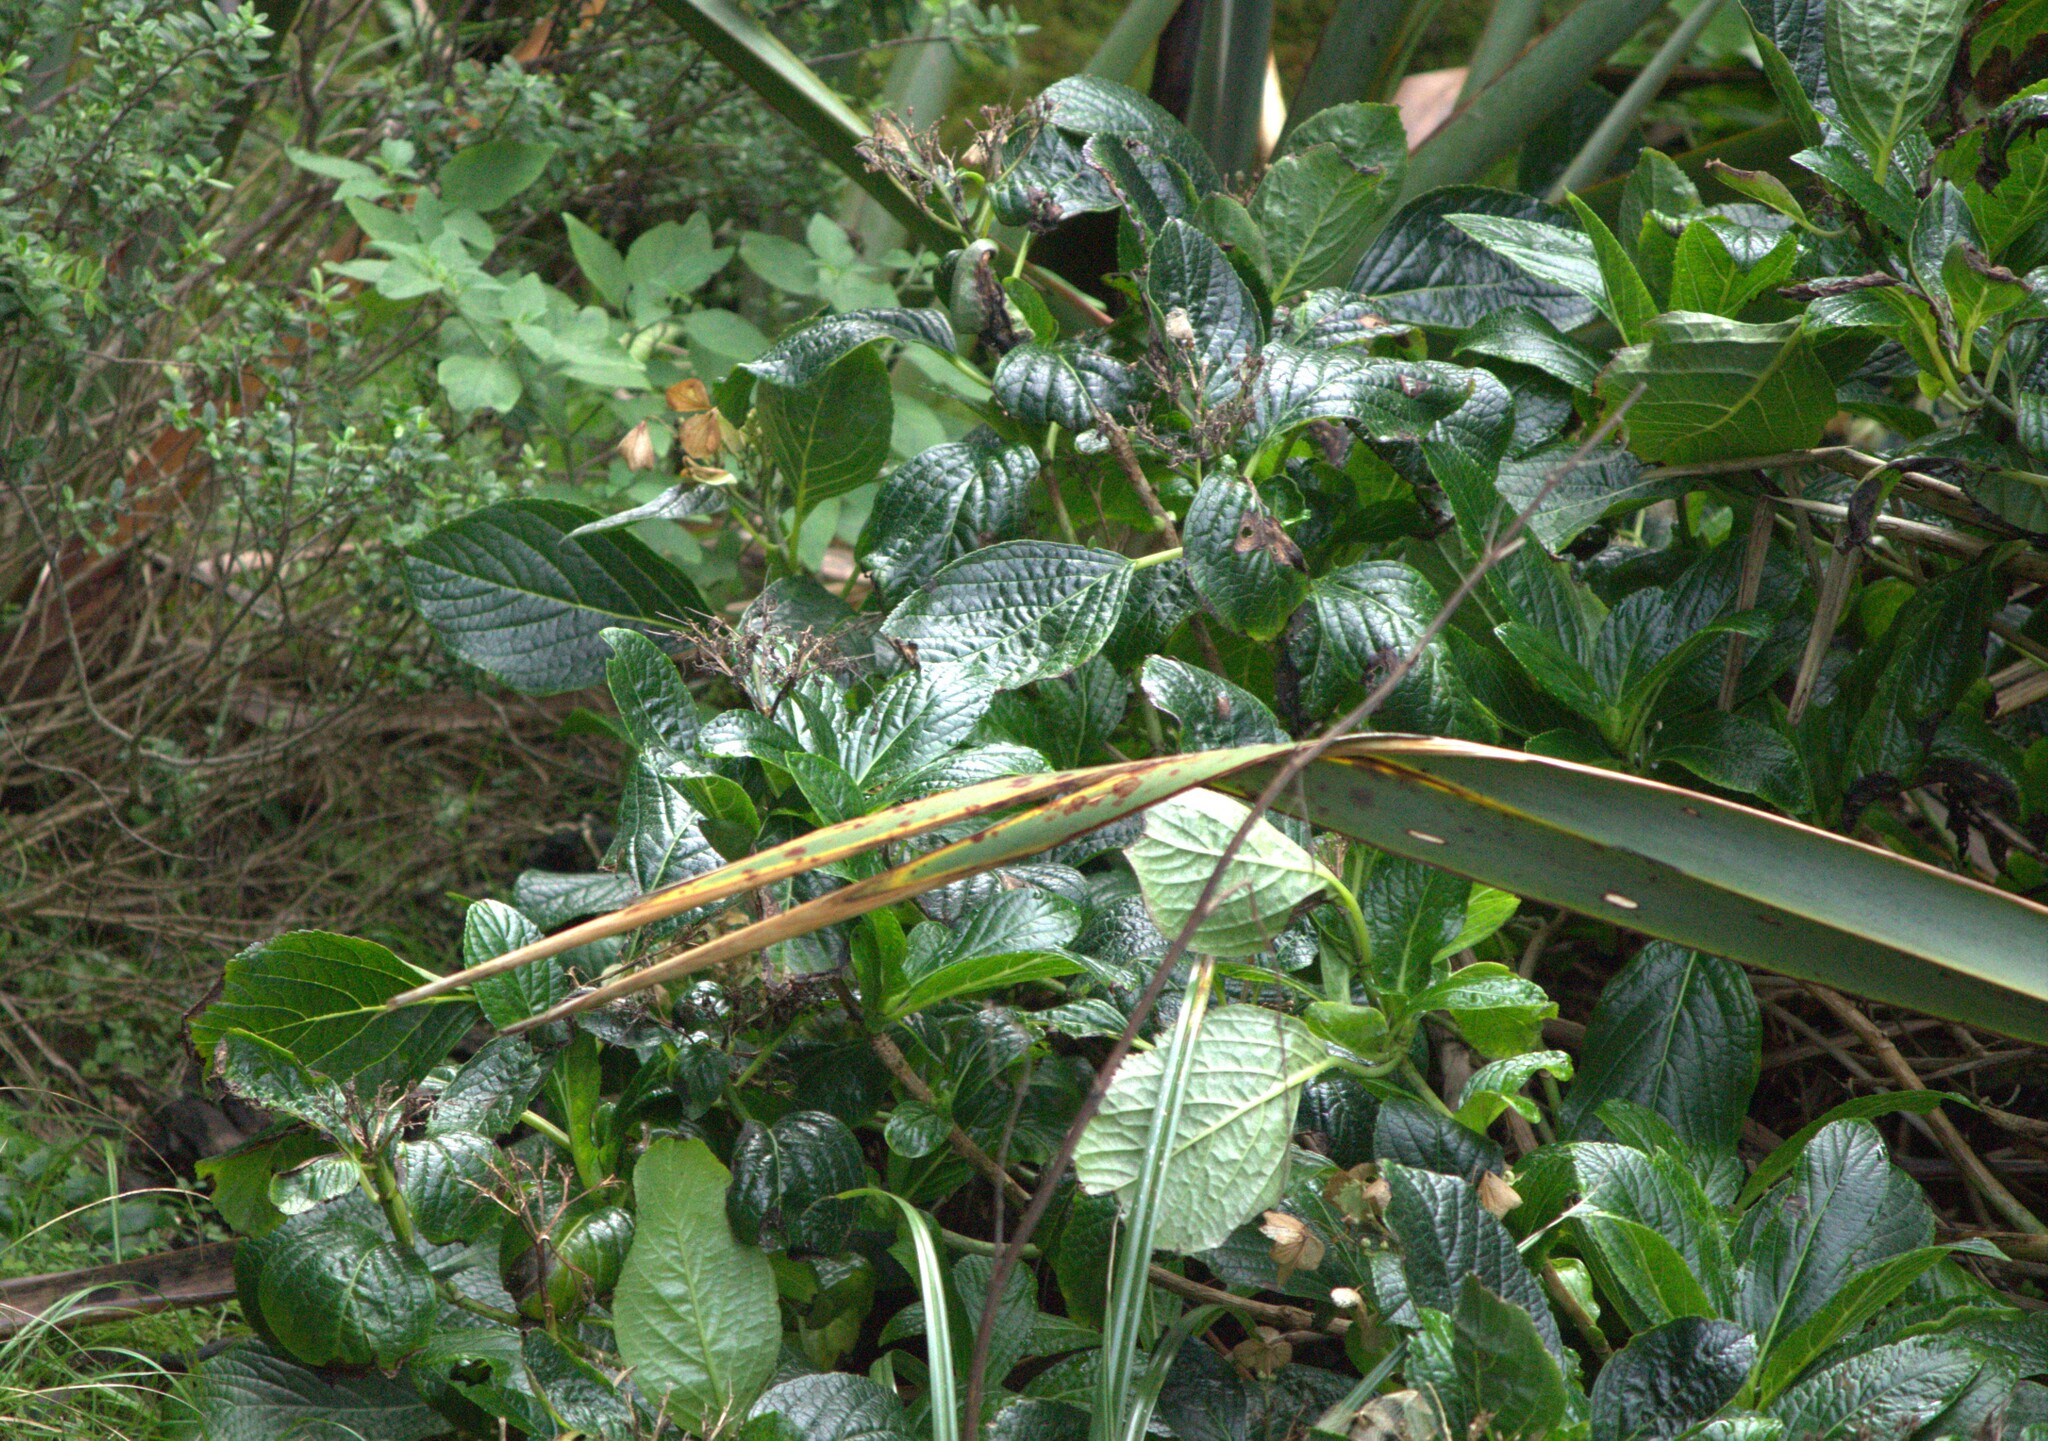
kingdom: Plantae
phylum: Tracheophyta
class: Magnoliopsida
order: Cornales
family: Hydrangeaceae
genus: Hydrangea
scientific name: Hydrangea macrophylla
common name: Hydrangea
